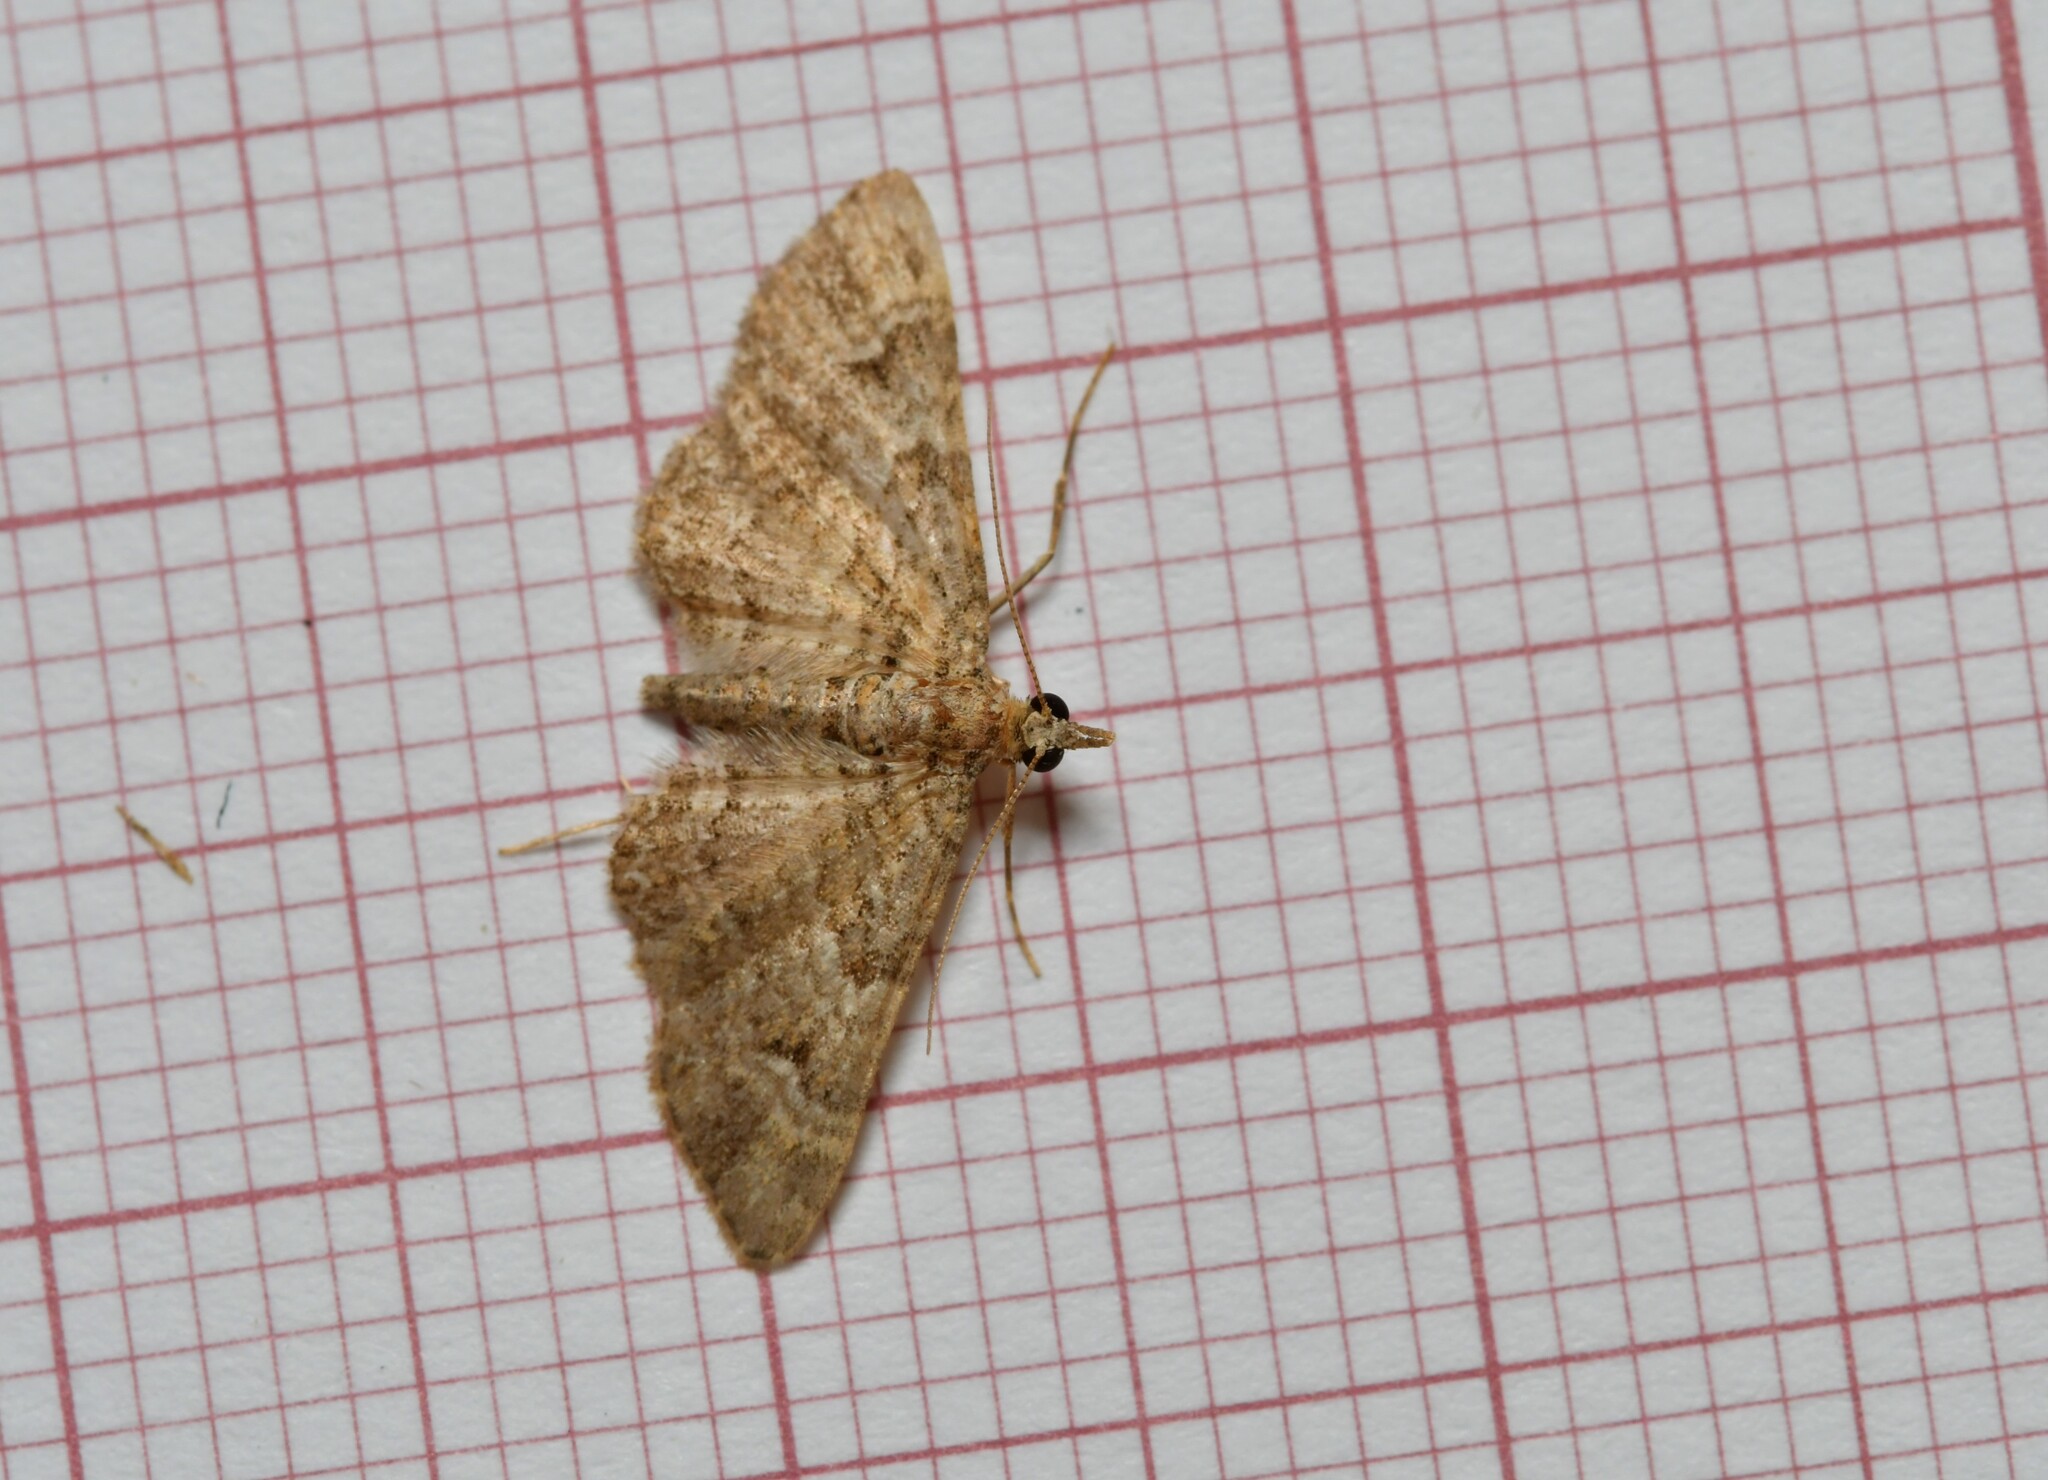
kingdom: Animalia
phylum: Arthropoda
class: Insecta
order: Lepidoptera
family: Geometridae
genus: Gymnoscelis
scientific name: Gymnoscelis rufifasciata
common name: Double-striped pug
